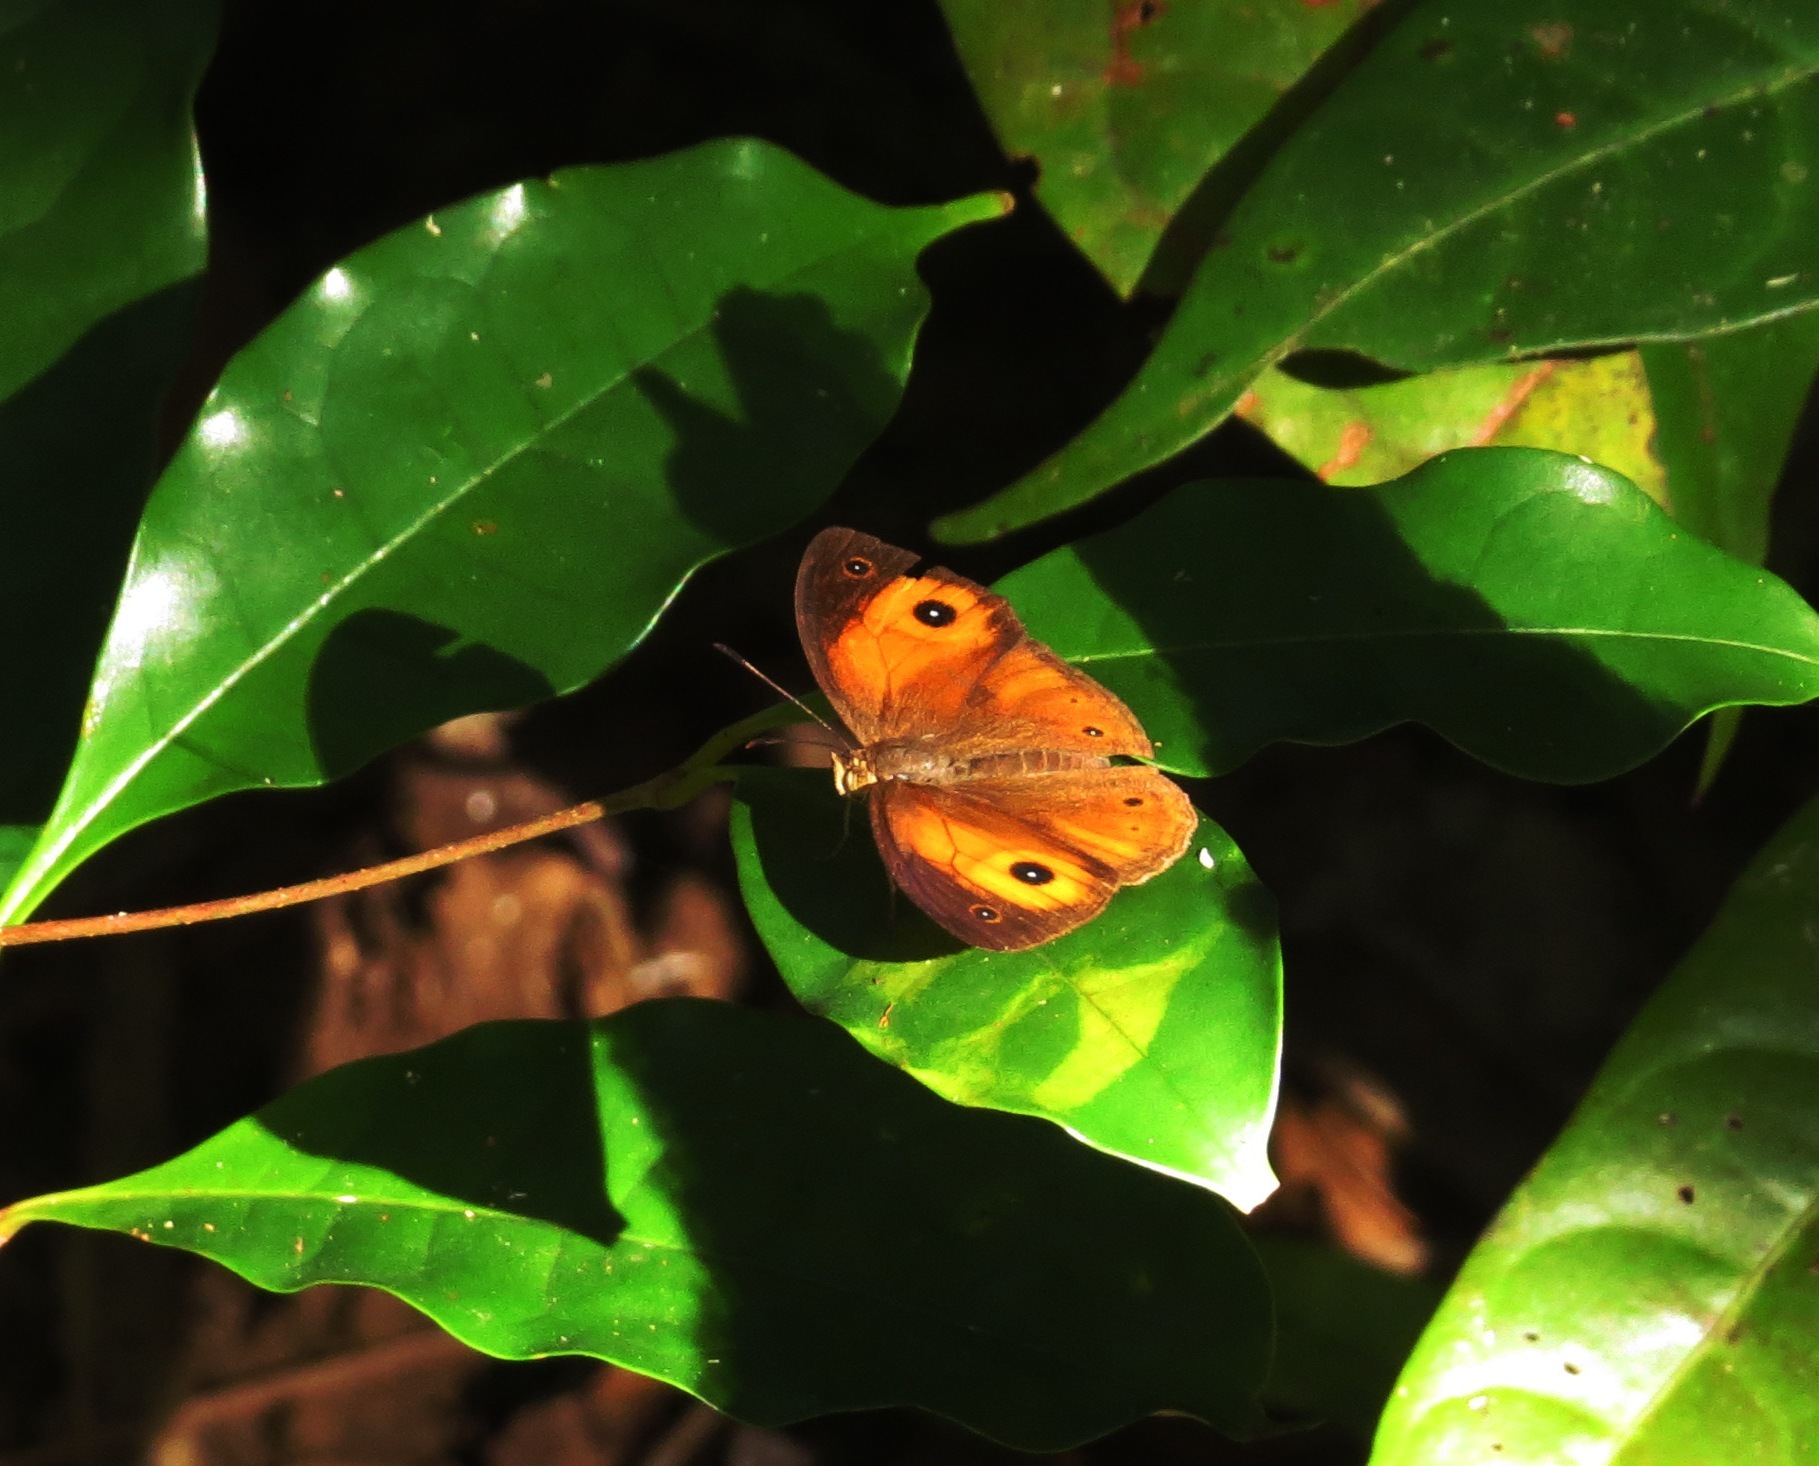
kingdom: Animalia
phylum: Arthropoda
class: Insecta
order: Lepidoptera
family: Nymphalidae
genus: Heteropsis
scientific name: Heteropsis maeva
